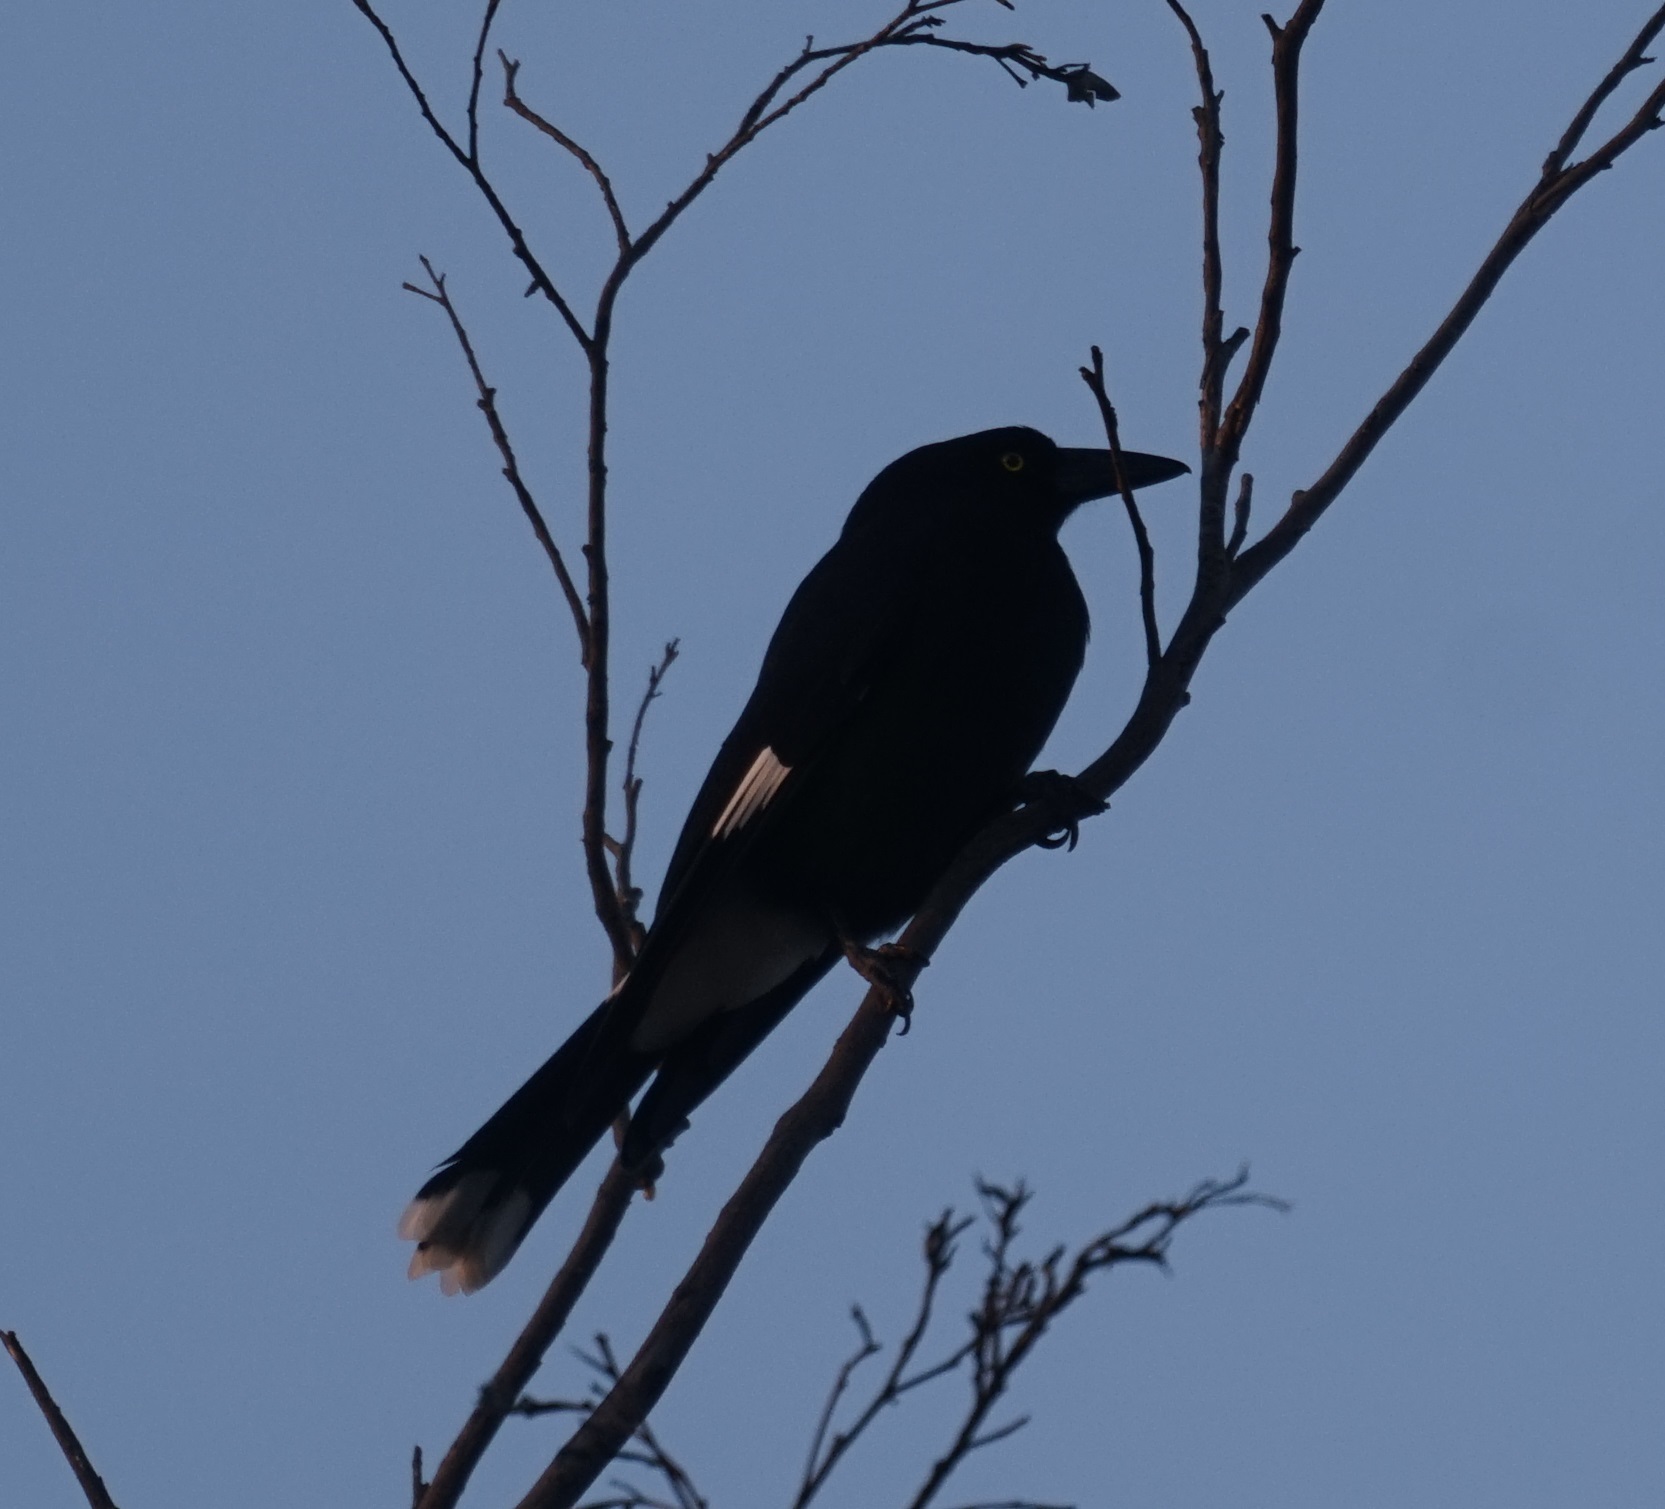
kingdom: Animalia
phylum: Chordata
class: Aves
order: Passeriformes
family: Cracticidae
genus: Strepera
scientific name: Strepera graculina
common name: Pied currawong
